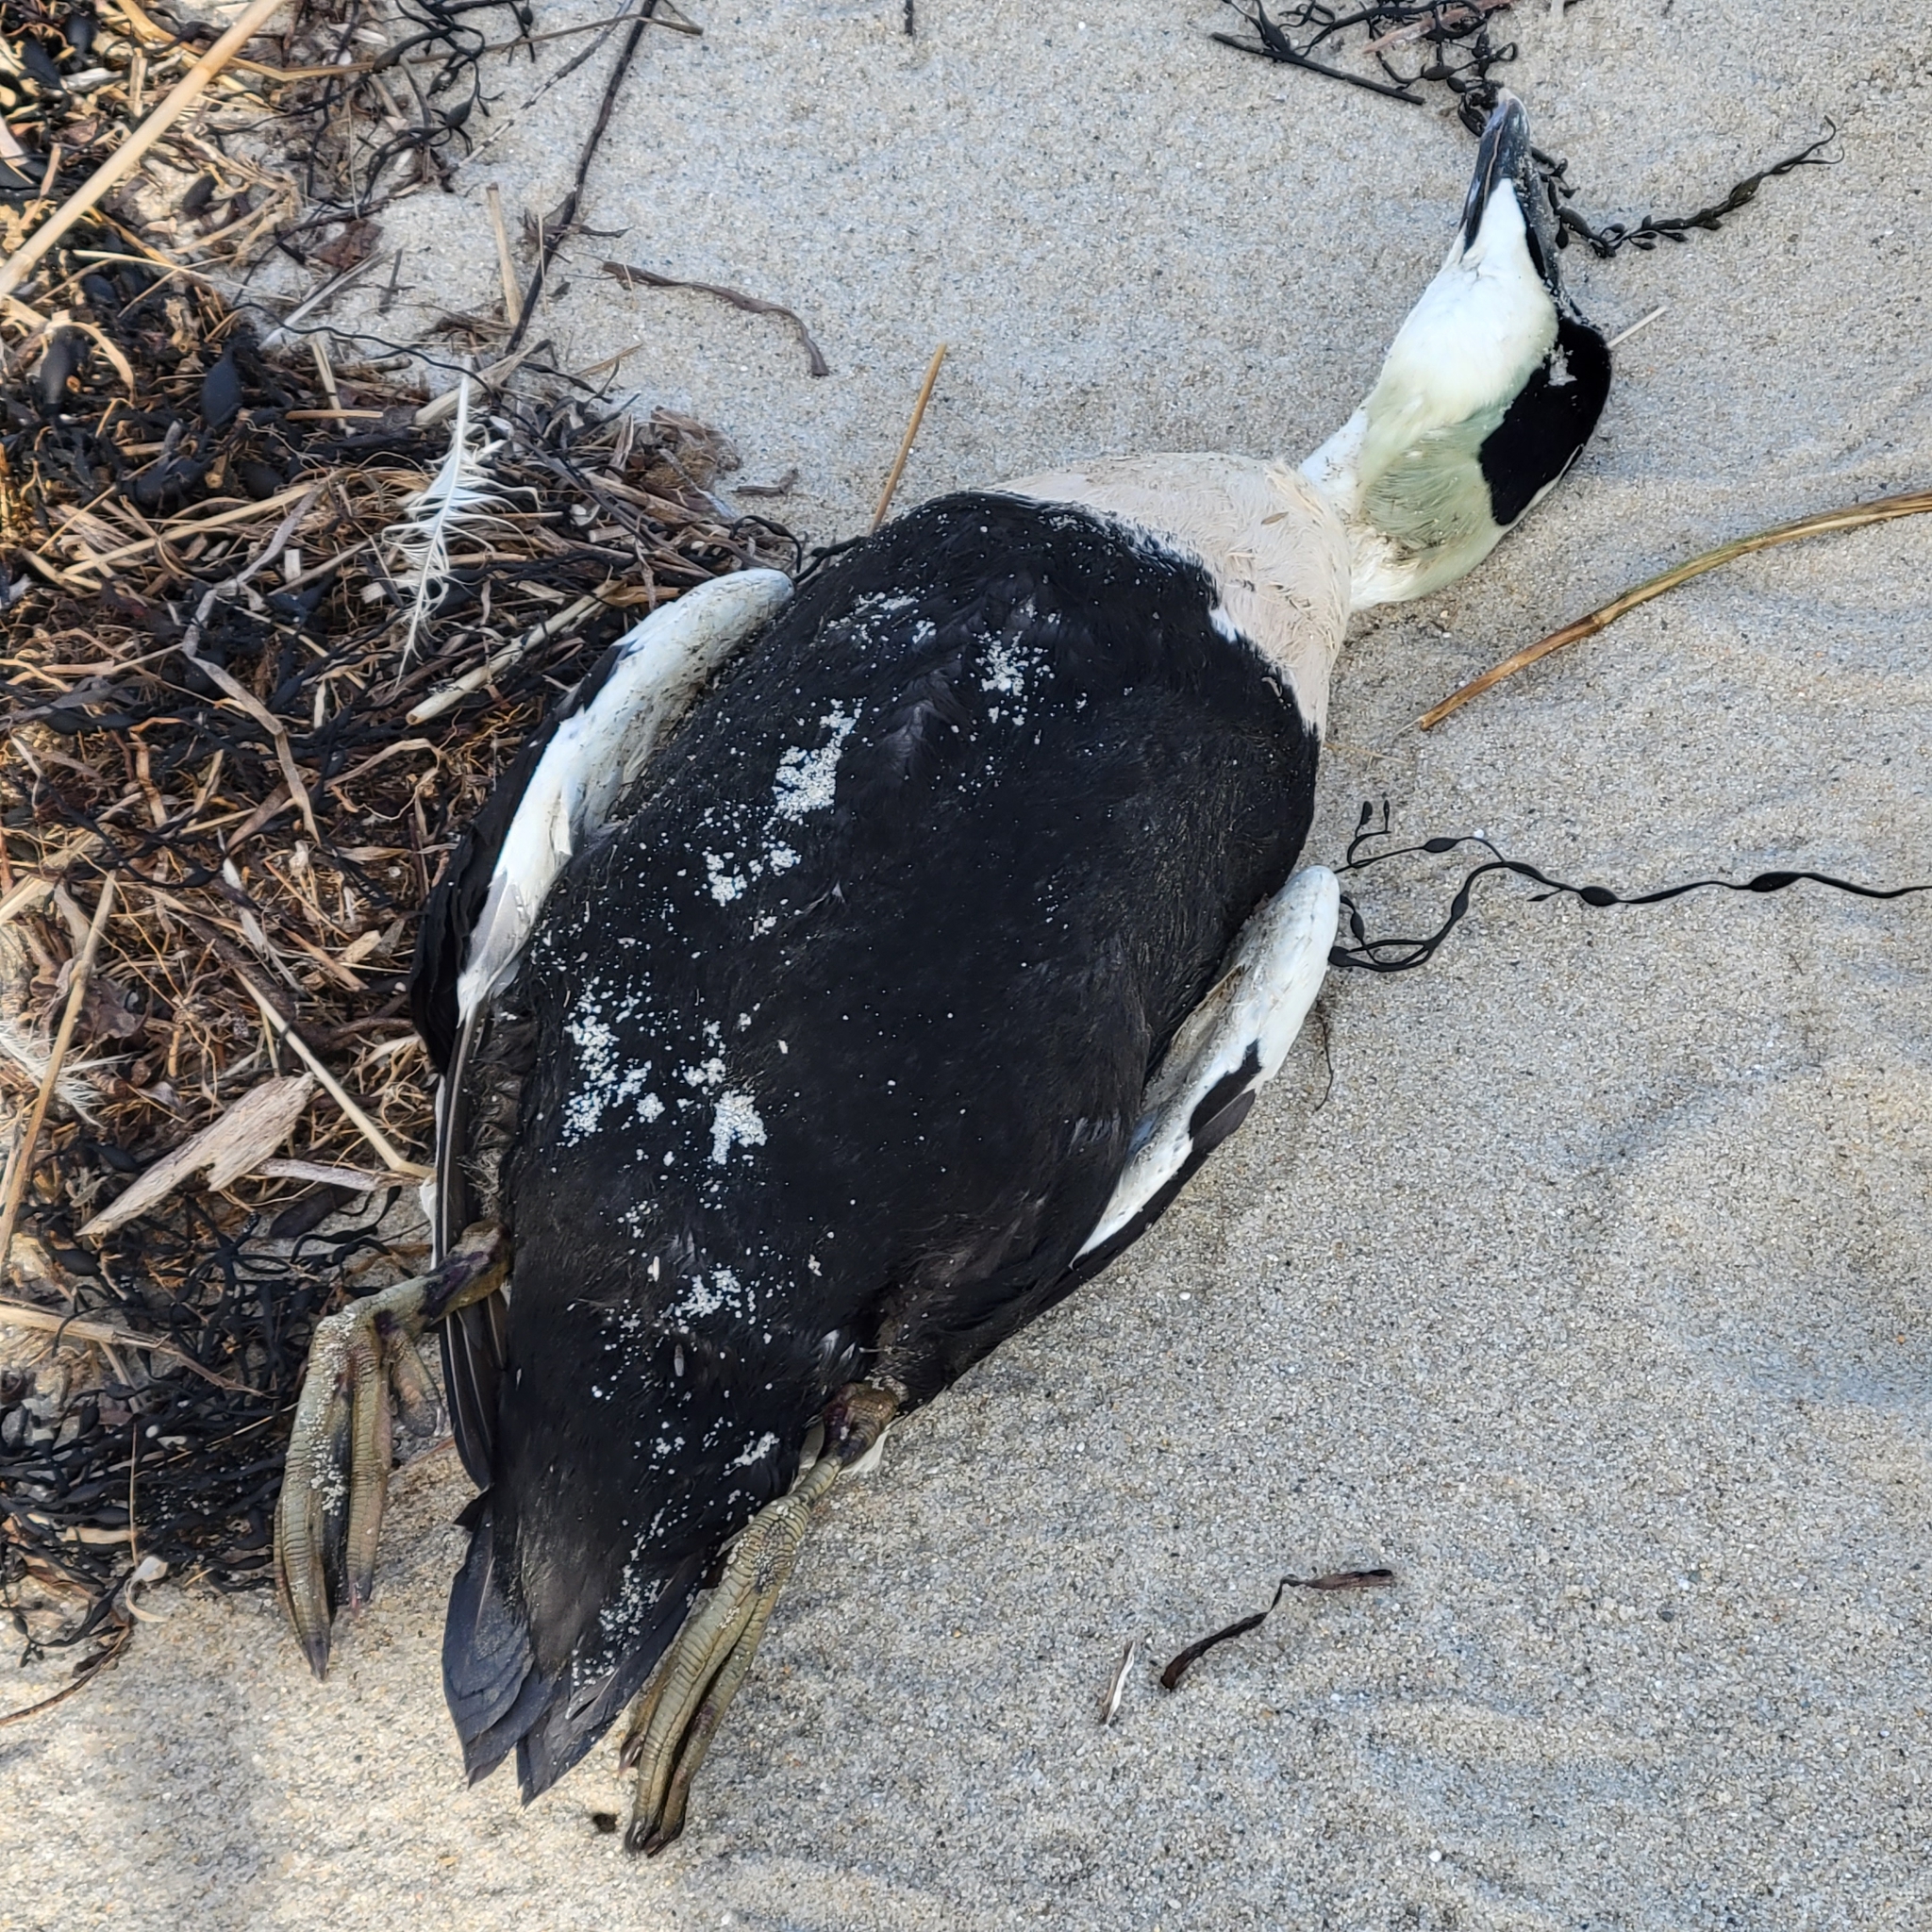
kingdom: Animalia
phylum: Chordata
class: Aves
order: Anseriformes
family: Anatidae
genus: Somateria
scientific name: Somateria mollissima
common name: Common eider
